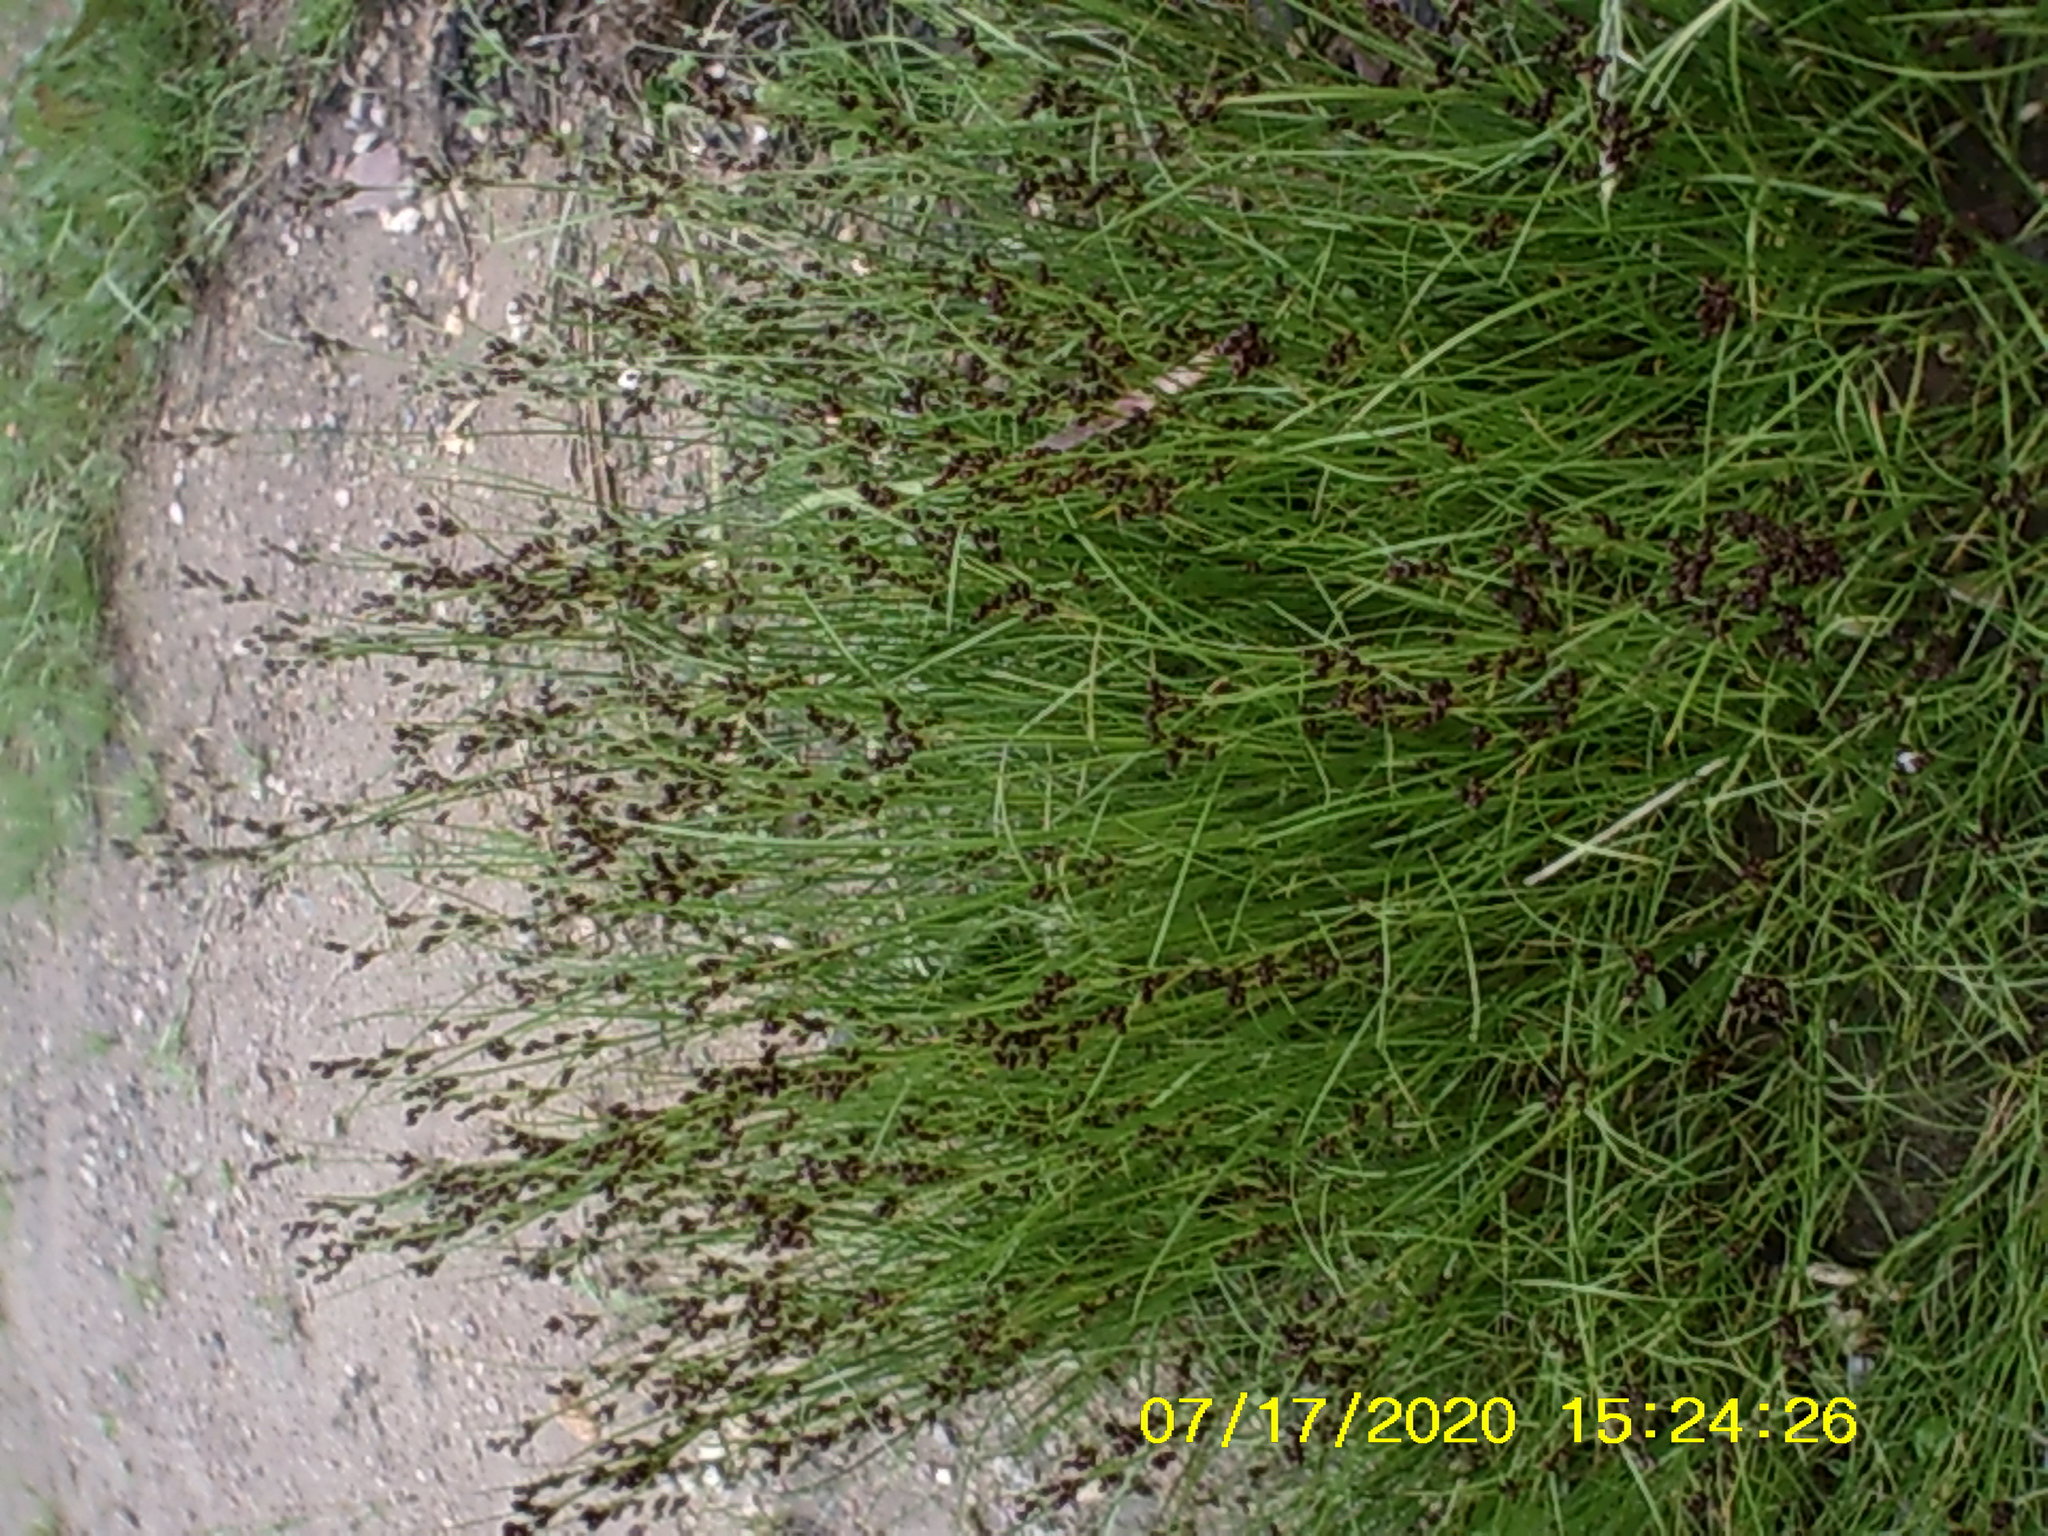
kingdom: Plantae
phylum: Tracheophyta
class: Liliopsida
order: Poales
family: Juncaceae
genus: Juncus
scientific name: Juncus compressus
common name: Round-fruited rush
